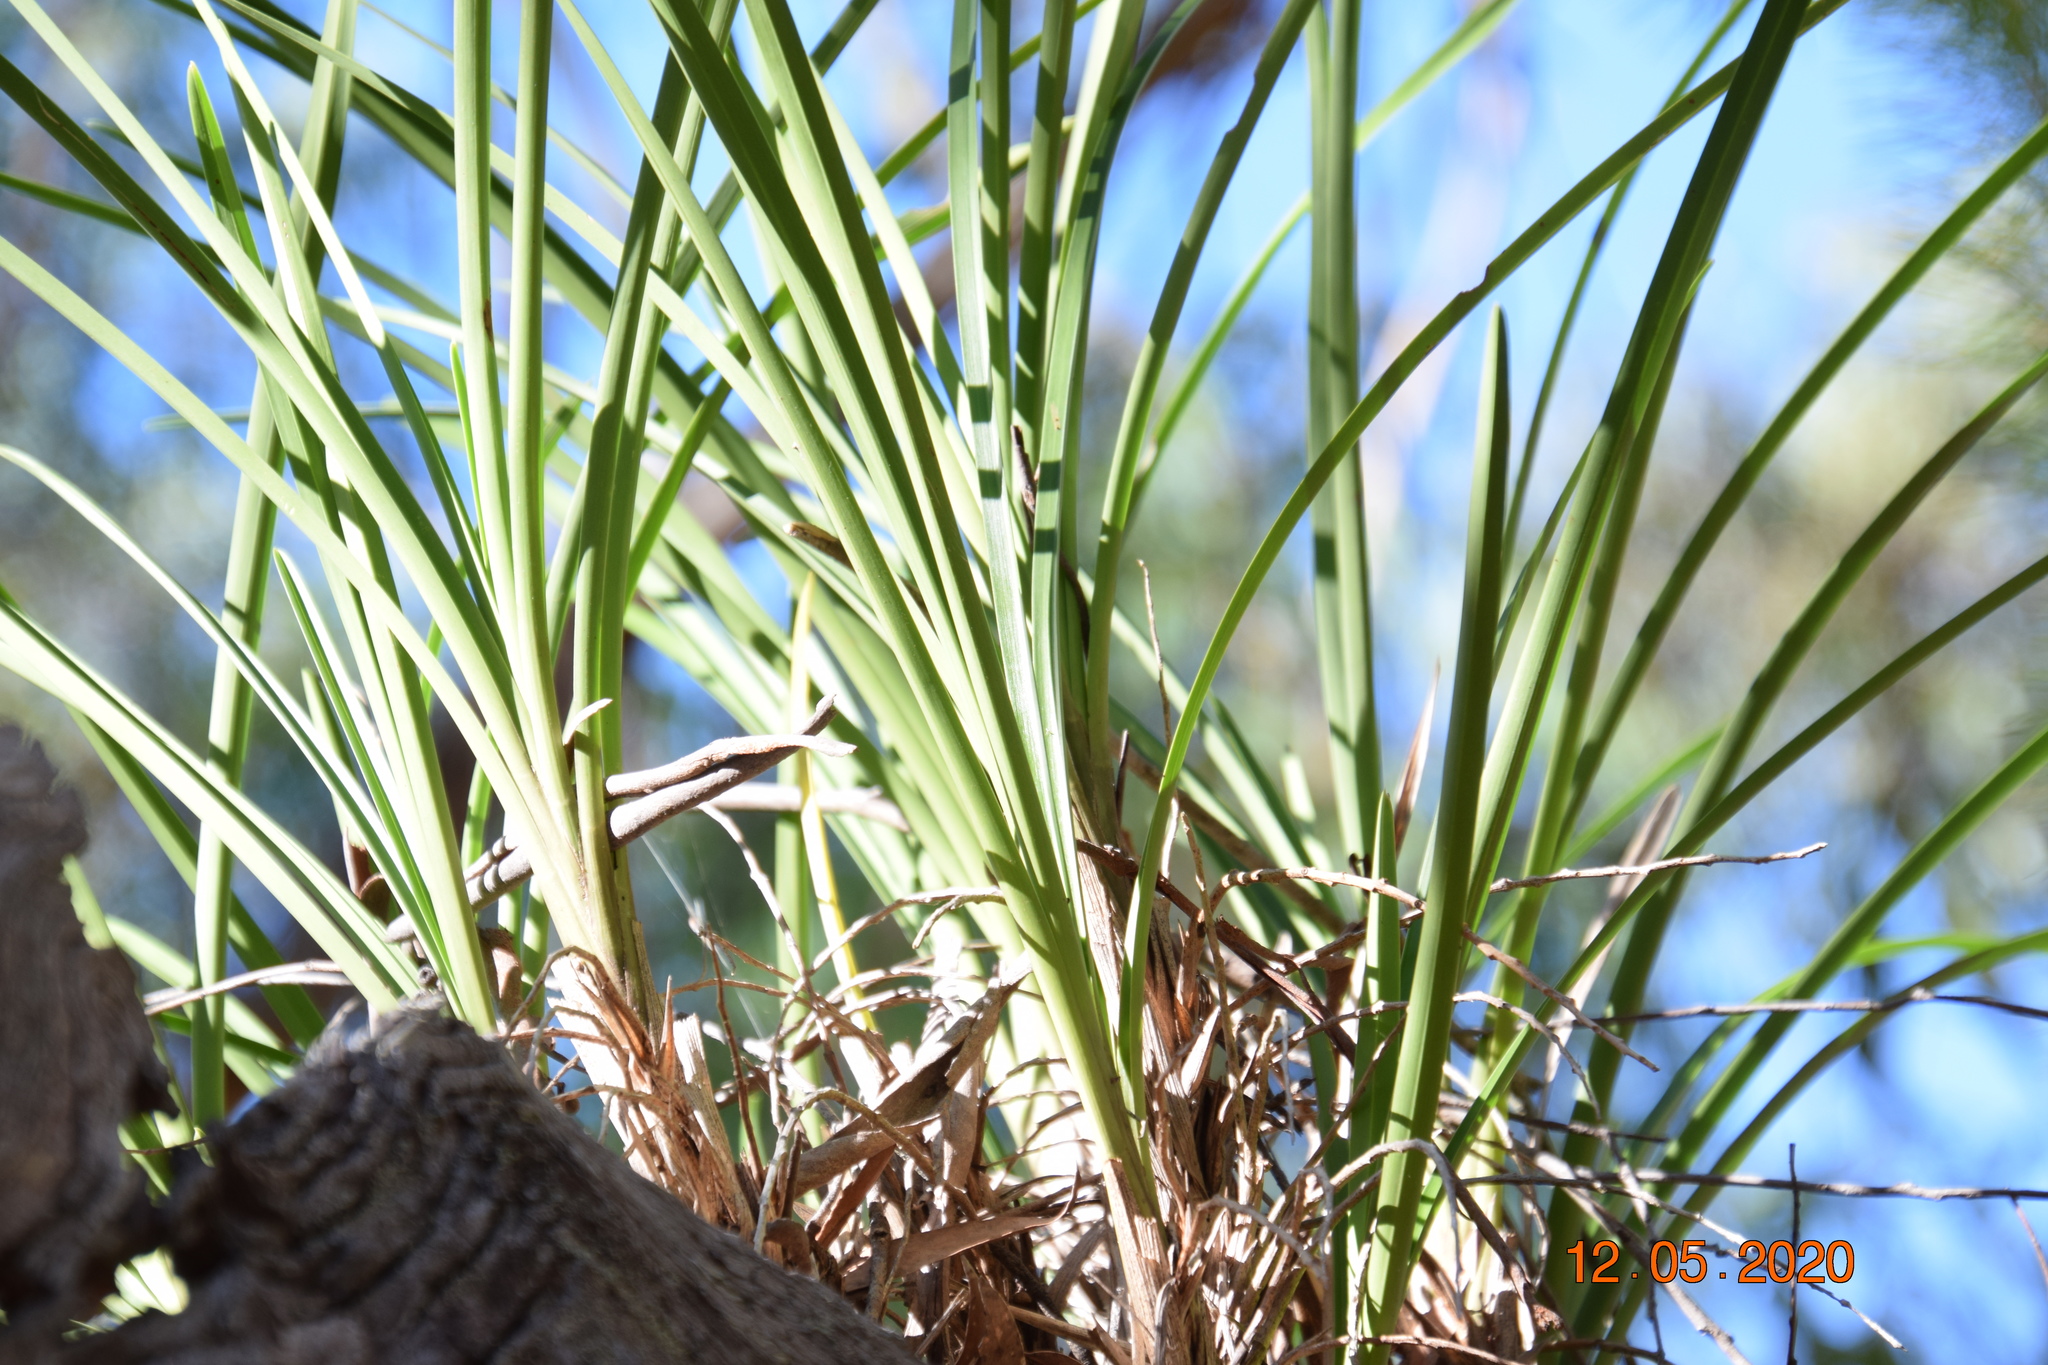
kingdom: Plantae
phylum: Tracheophyta
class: Liliopsida
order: Asparagales
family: Orchidaceae
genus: Cymbidium
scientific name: Cymbidium suave
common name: Snake orchid
